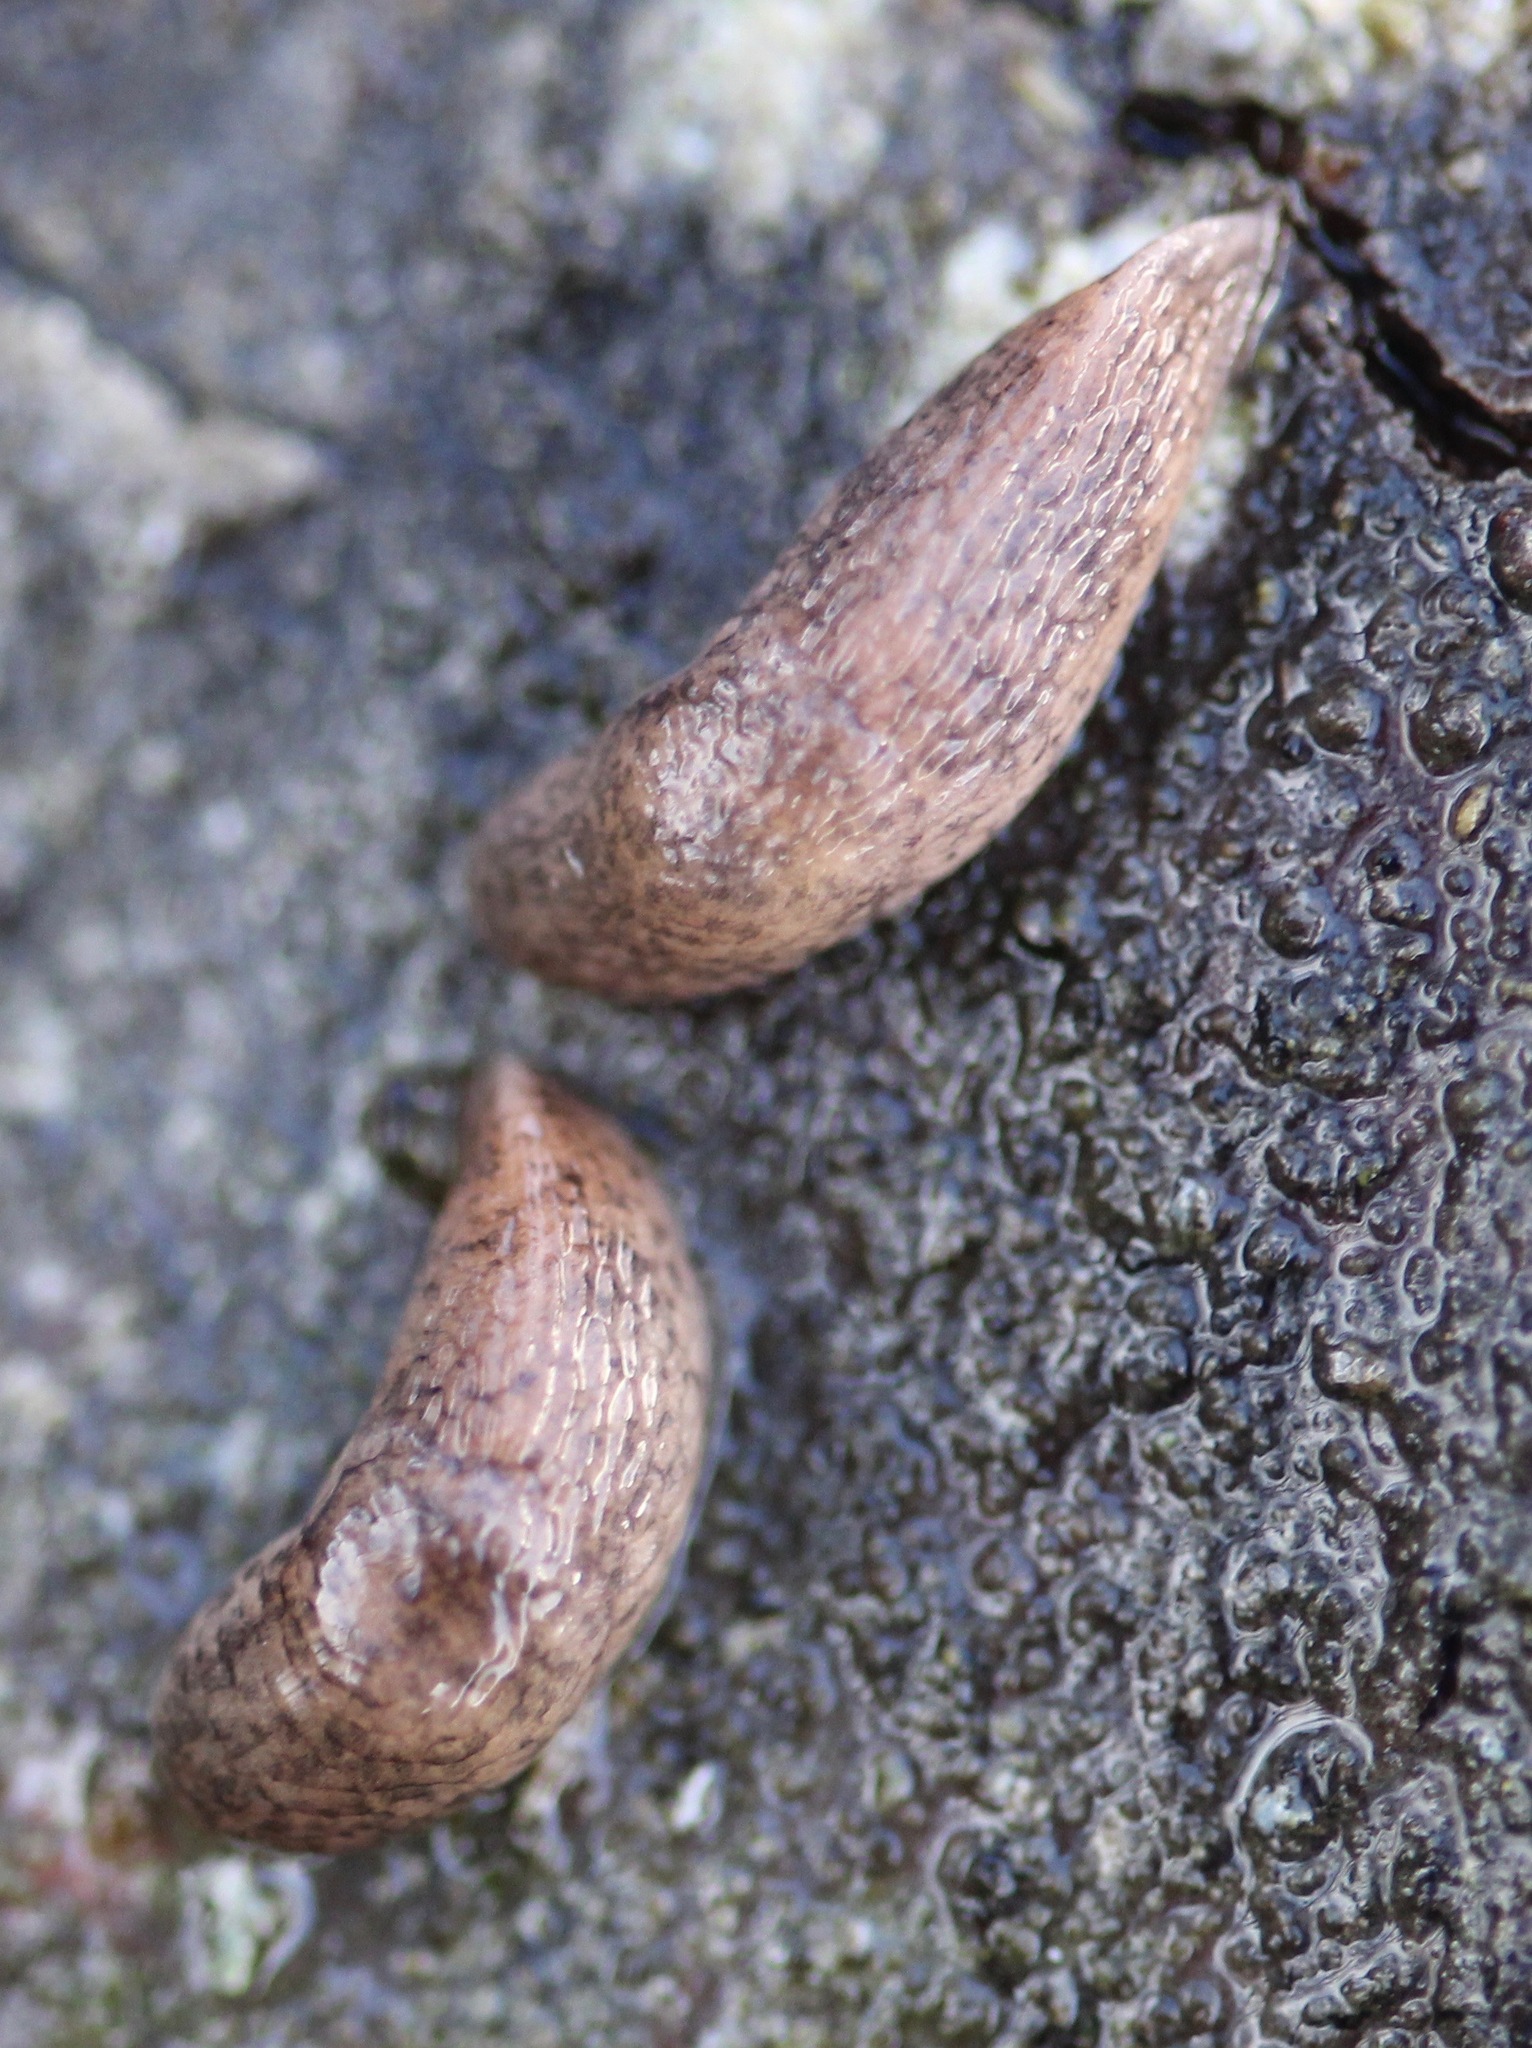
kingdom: Animalia
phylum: Mollusca
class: Gastropoda
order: Stylommatophora
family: Agriolimacidae
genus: Deroceras
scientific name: Deroceras reticulatum
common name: Gray field slug
